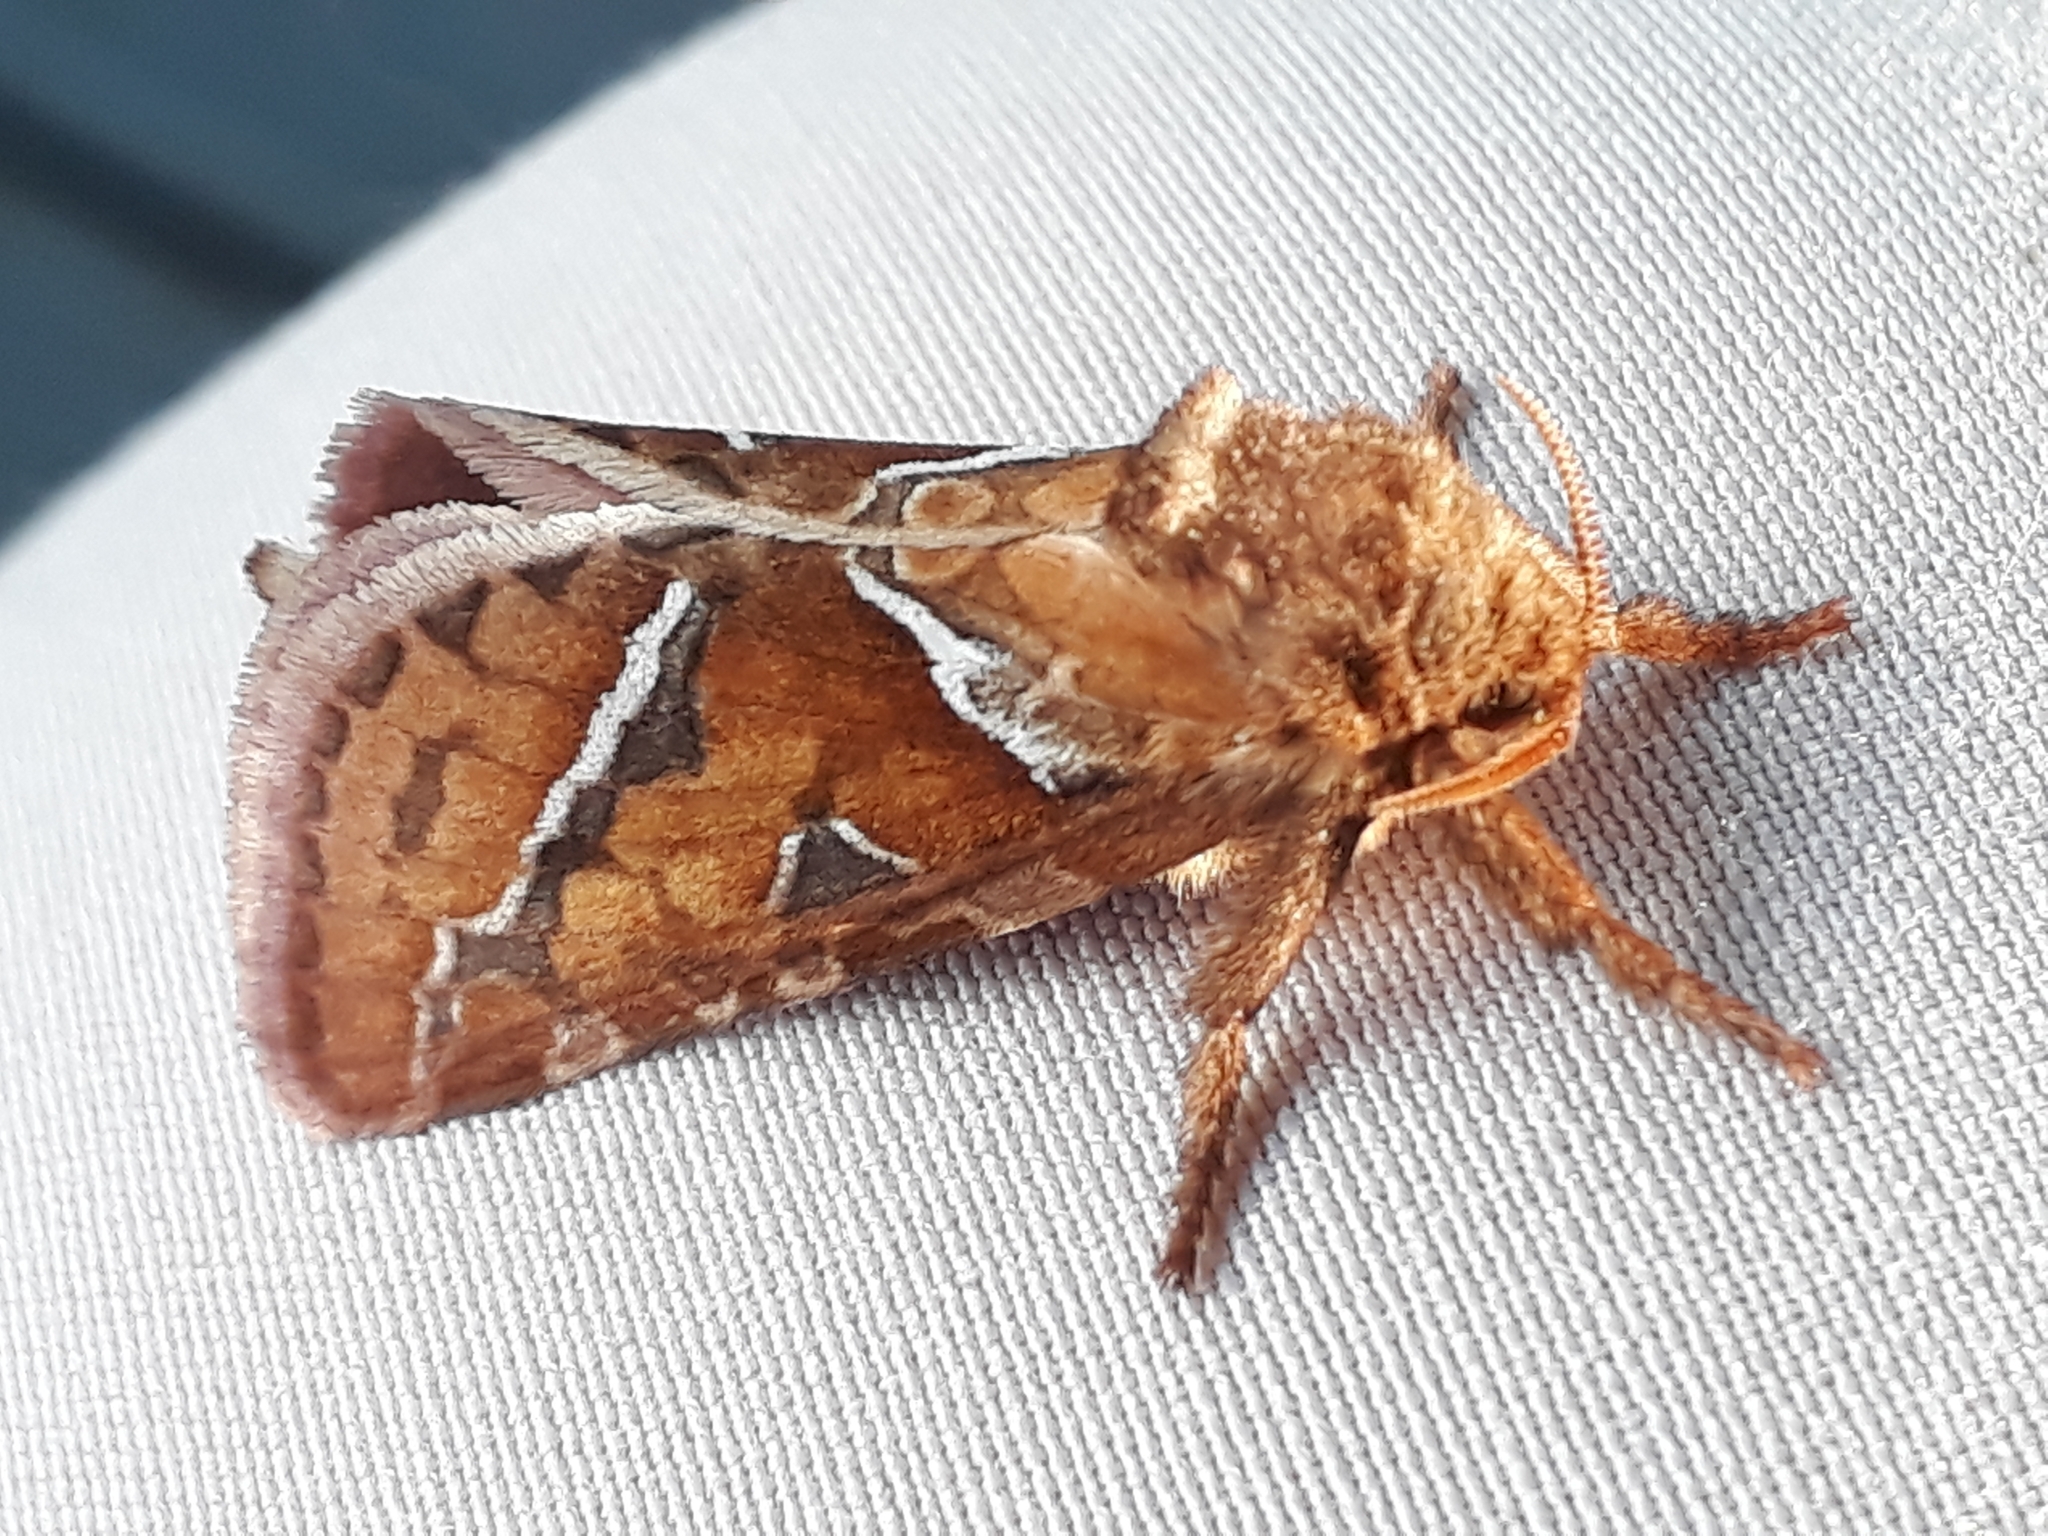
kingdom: Animalia
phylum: Arthropoda
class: Insecta
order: Lepidoptera
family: Hepialidae
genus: Triodia
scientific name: Triodia sylvina
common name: Orange swift
